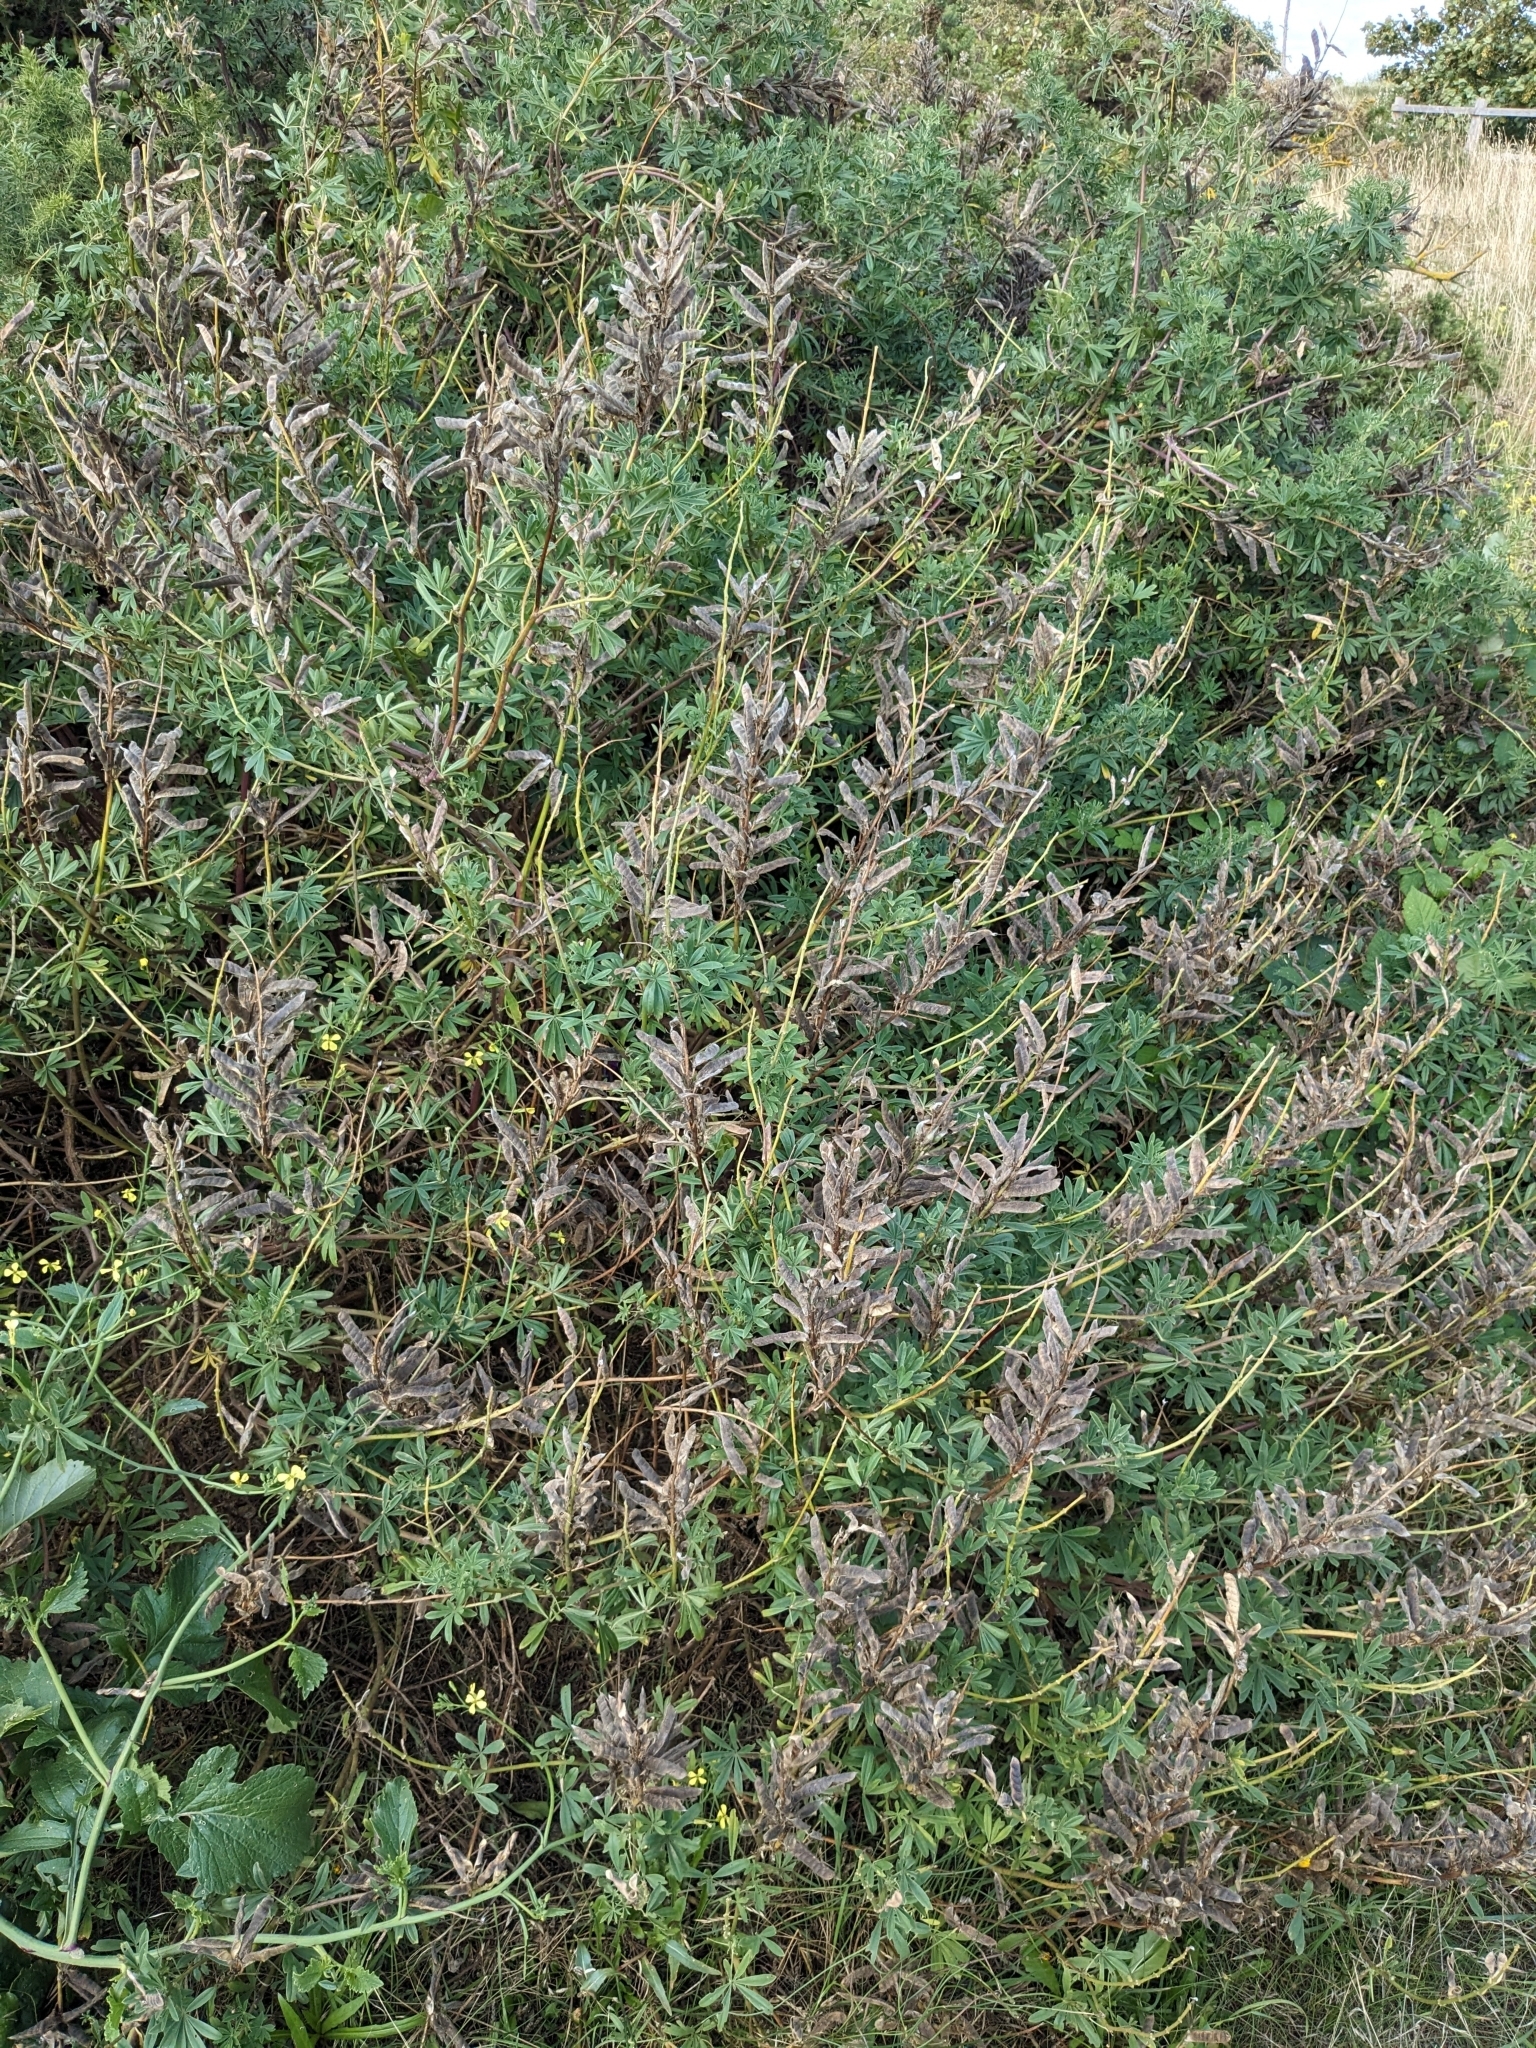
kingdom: Plantae
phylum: Tracheophyta
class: Magnoliopsida
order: Fabales
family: Fabaceae
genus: Lupinus
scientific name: Lupinus arboreus
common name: Yellow bush lupine
